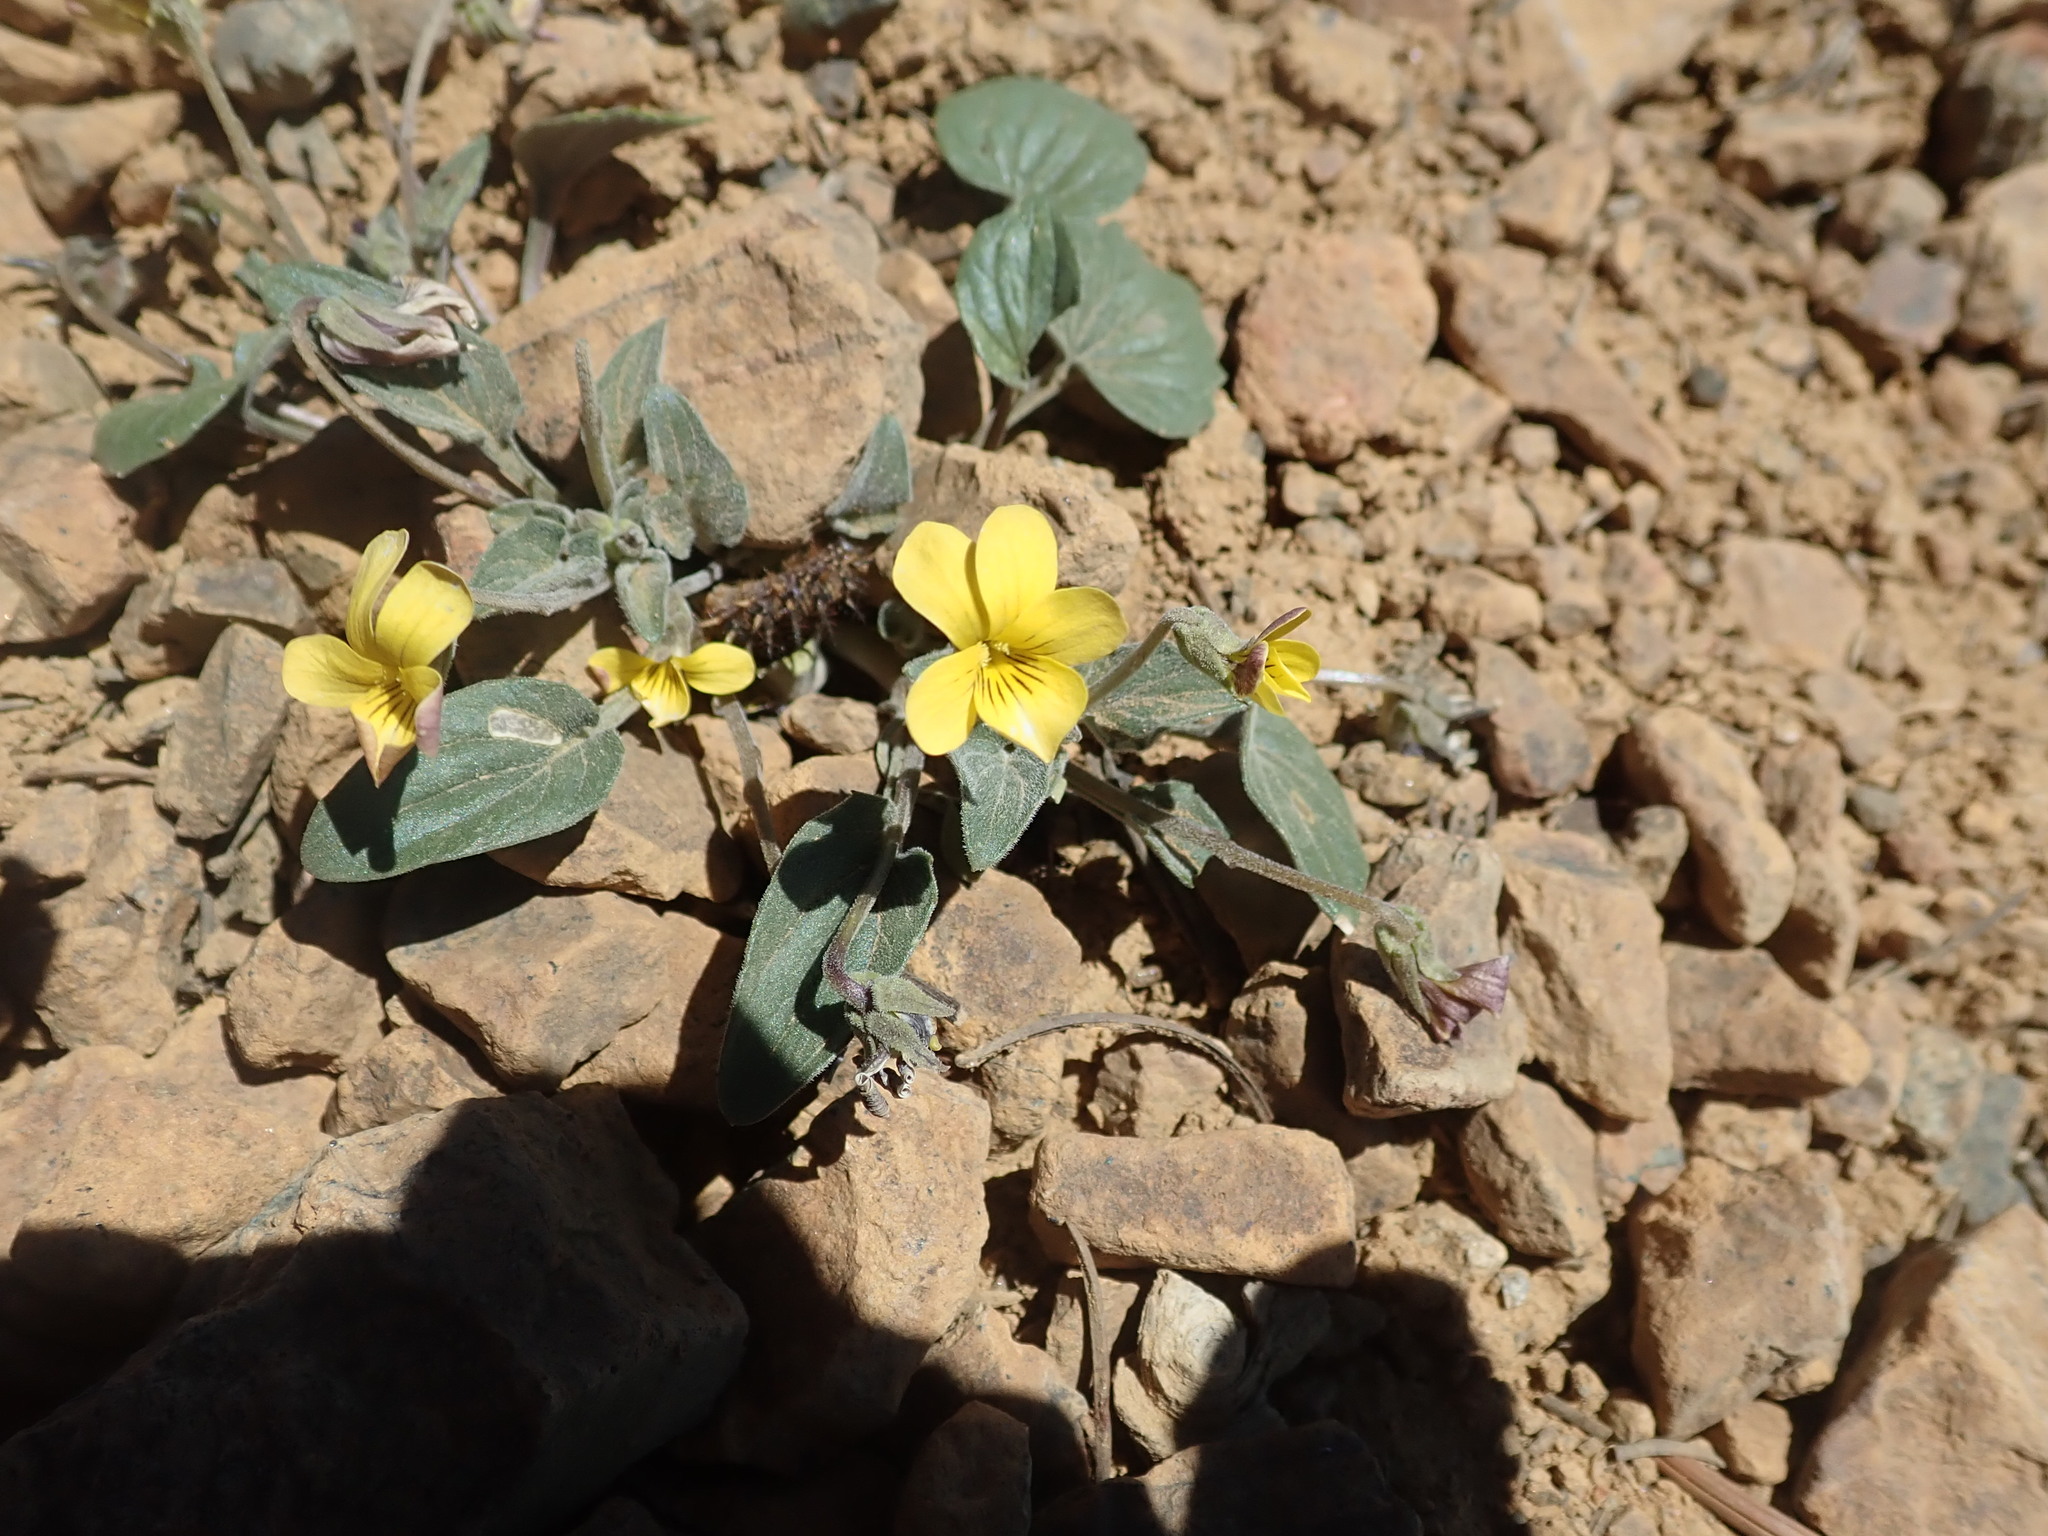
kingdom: Plantae
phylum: Tracheophyta
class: Magnoliopsida
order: Malpighiales
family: Violaceae
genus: Viola
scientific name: Viola purpurea
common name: Pine violet
